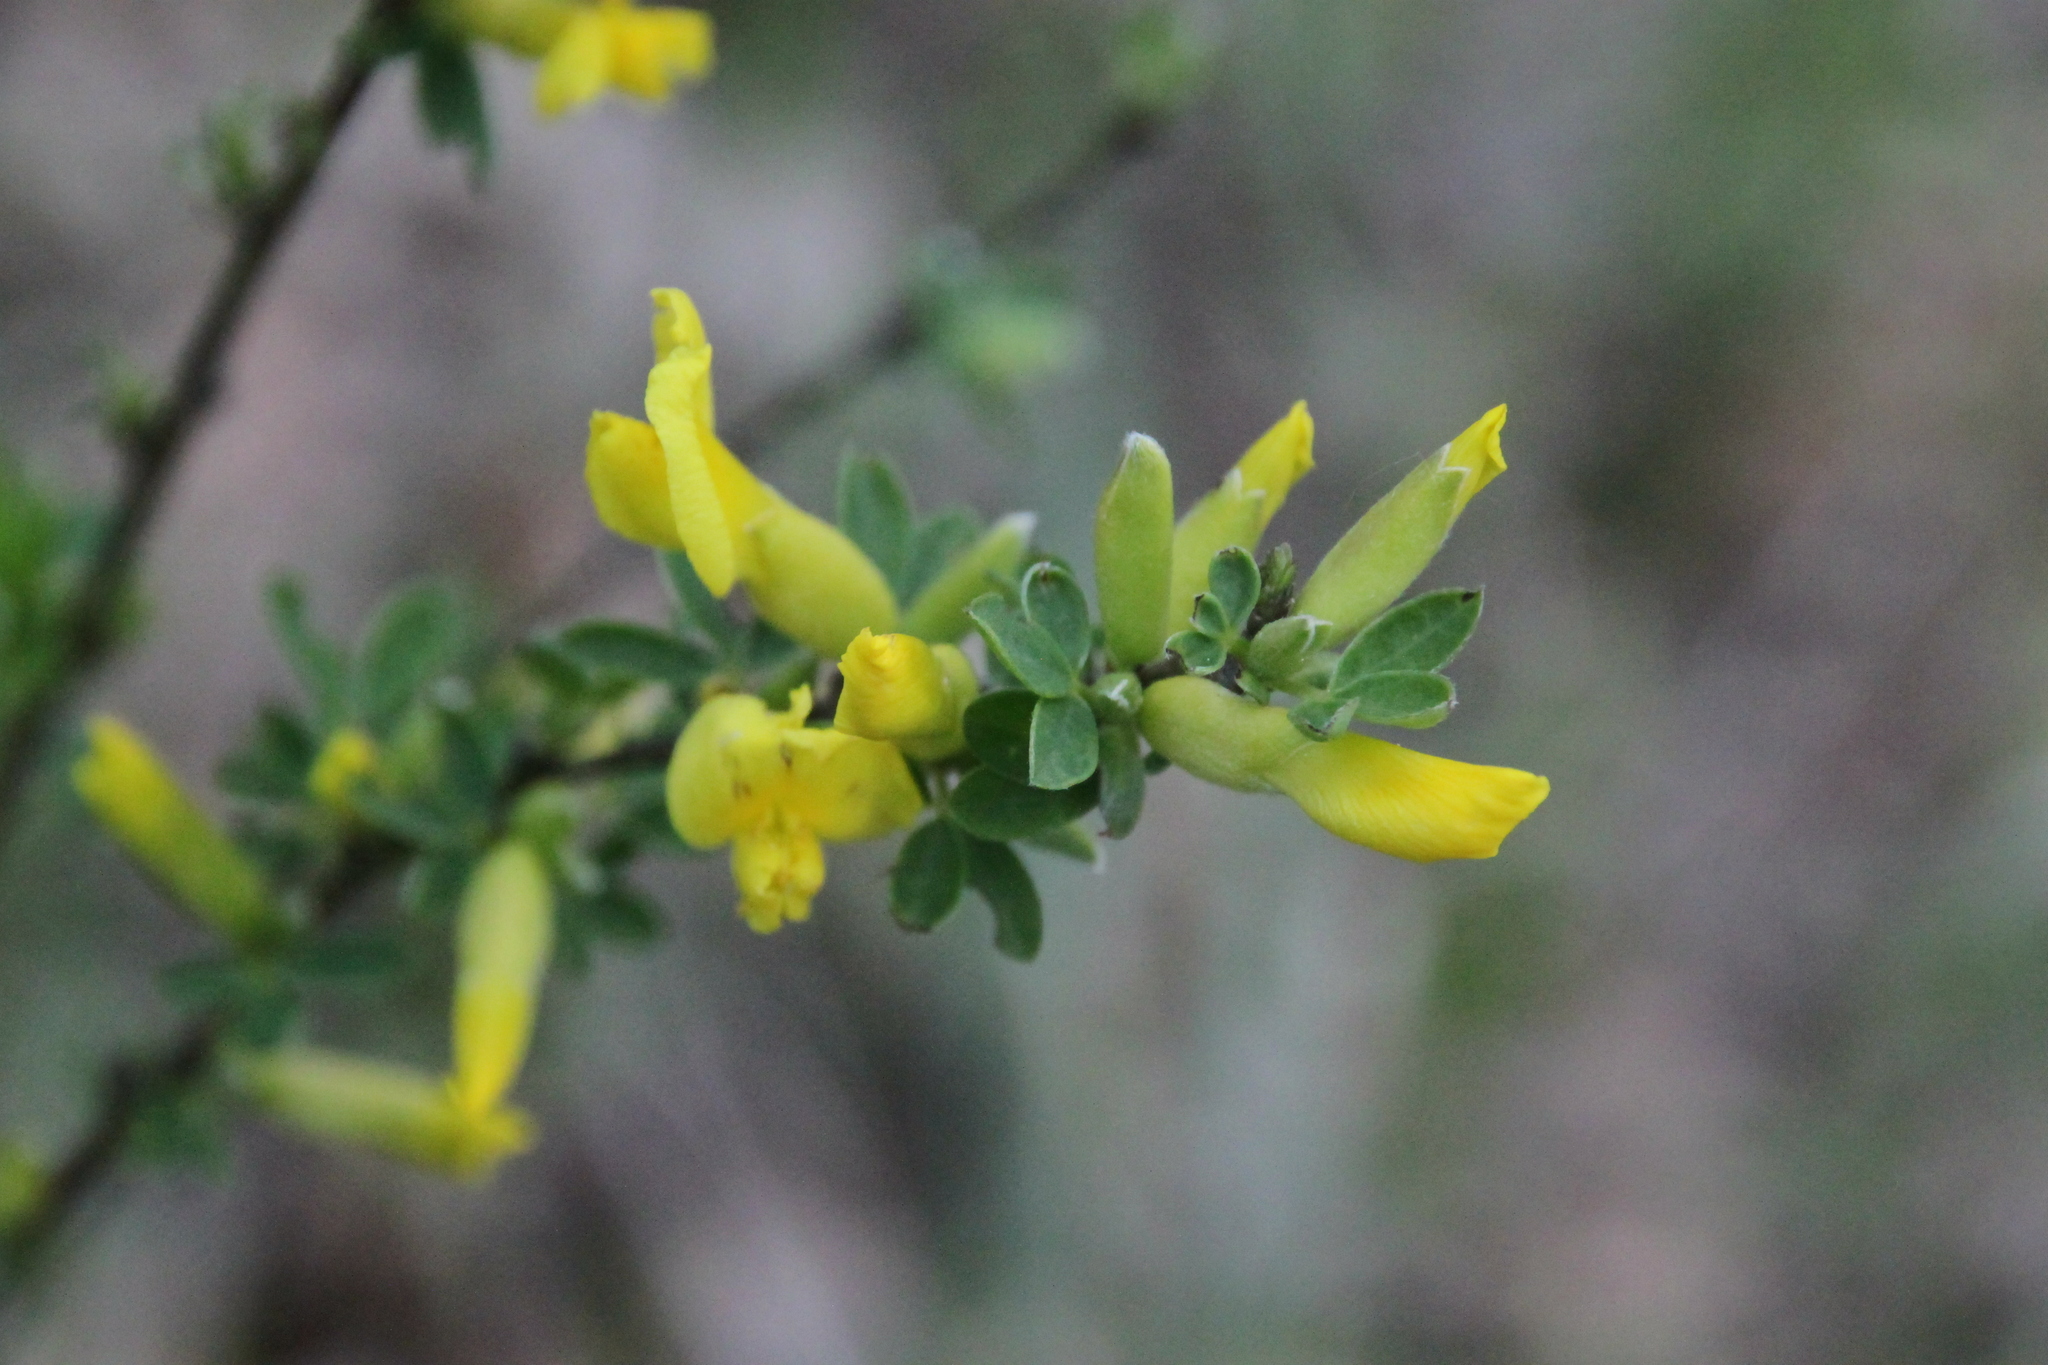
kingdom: Plantae
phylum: Tracheophyta
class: Magnoliopsida
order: Fabales
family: Fabaceae
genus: Chamaecytisus
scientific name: Chamaecytisus ruthenicus
